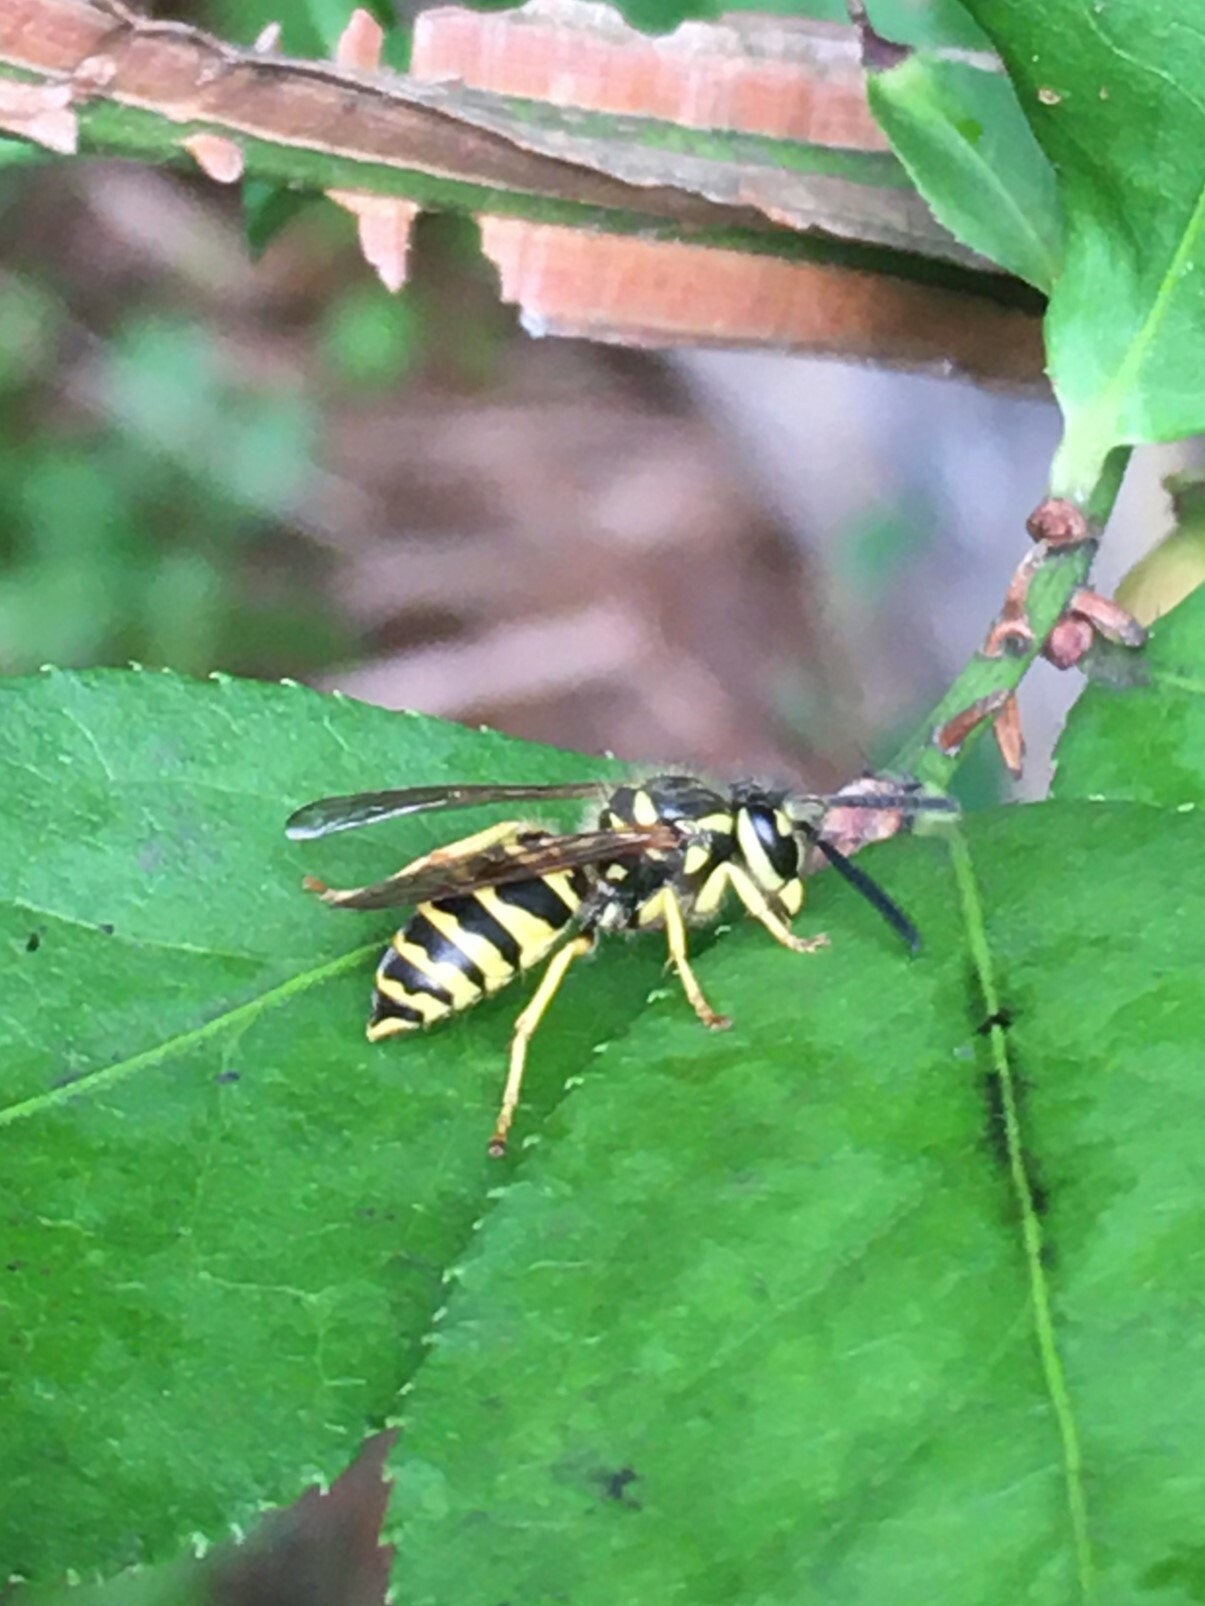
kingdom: Animalia
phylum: Arthropoda
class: Insecta
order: Hymenoptera
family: Vespidae
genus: Vespula
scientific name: Vespula maculifrons
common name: Eastern yellowjacket
